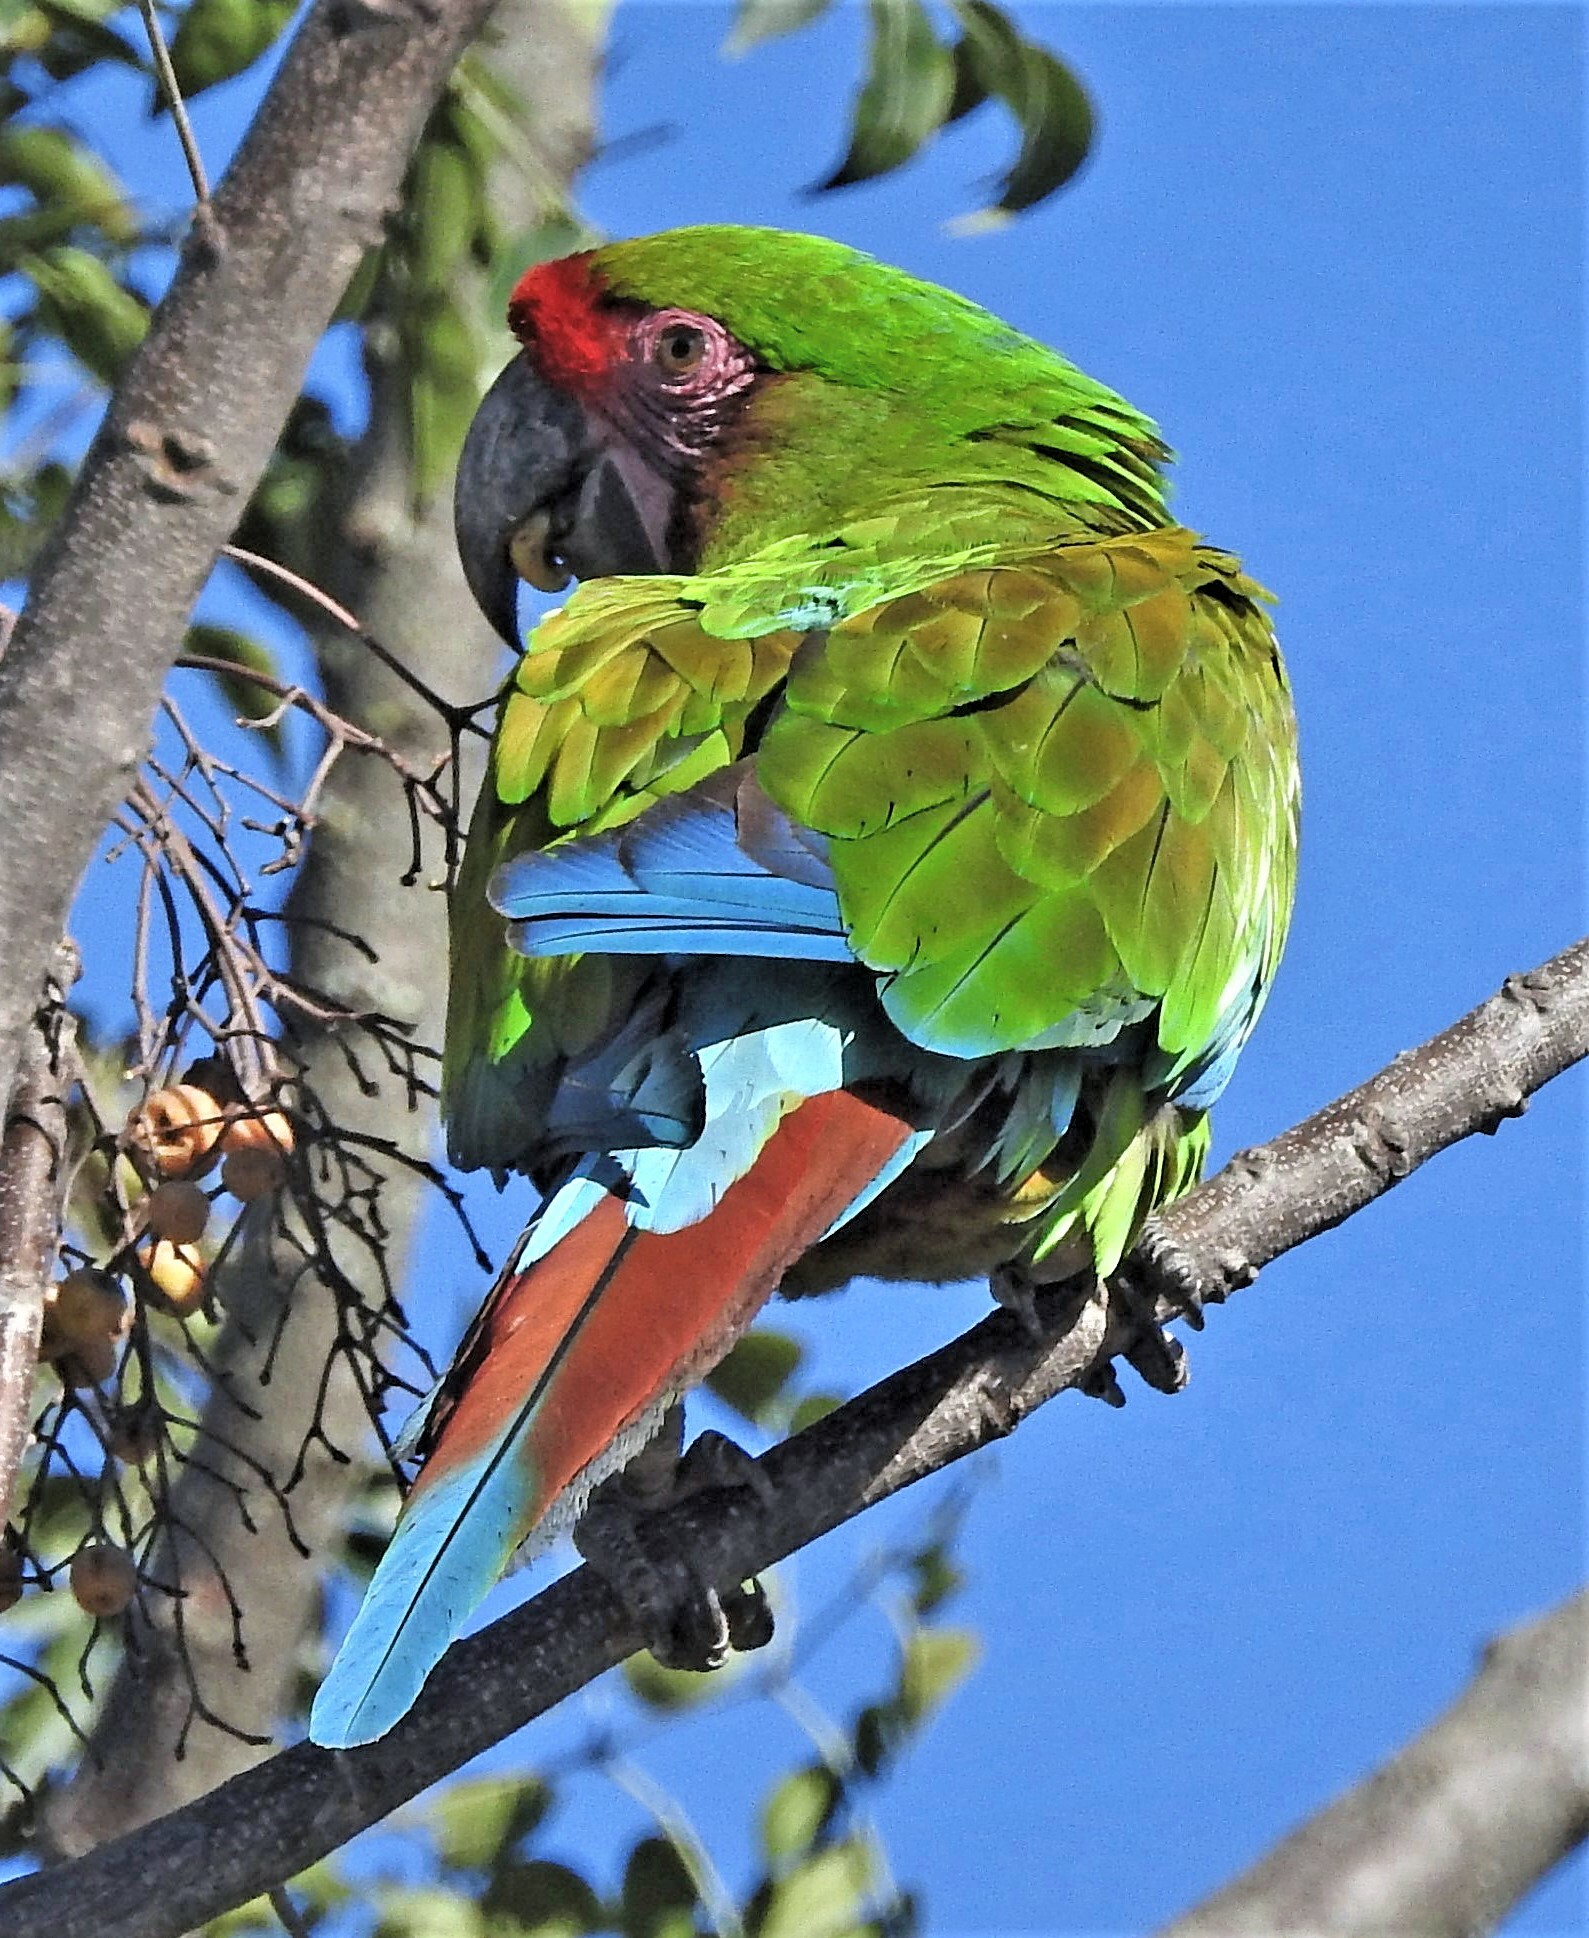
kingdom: Animalia
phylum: Chordata
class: Aves
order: Psittaciformes
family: Psittacidae
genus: Ara
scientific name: Ara militaris
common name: Military macaw
